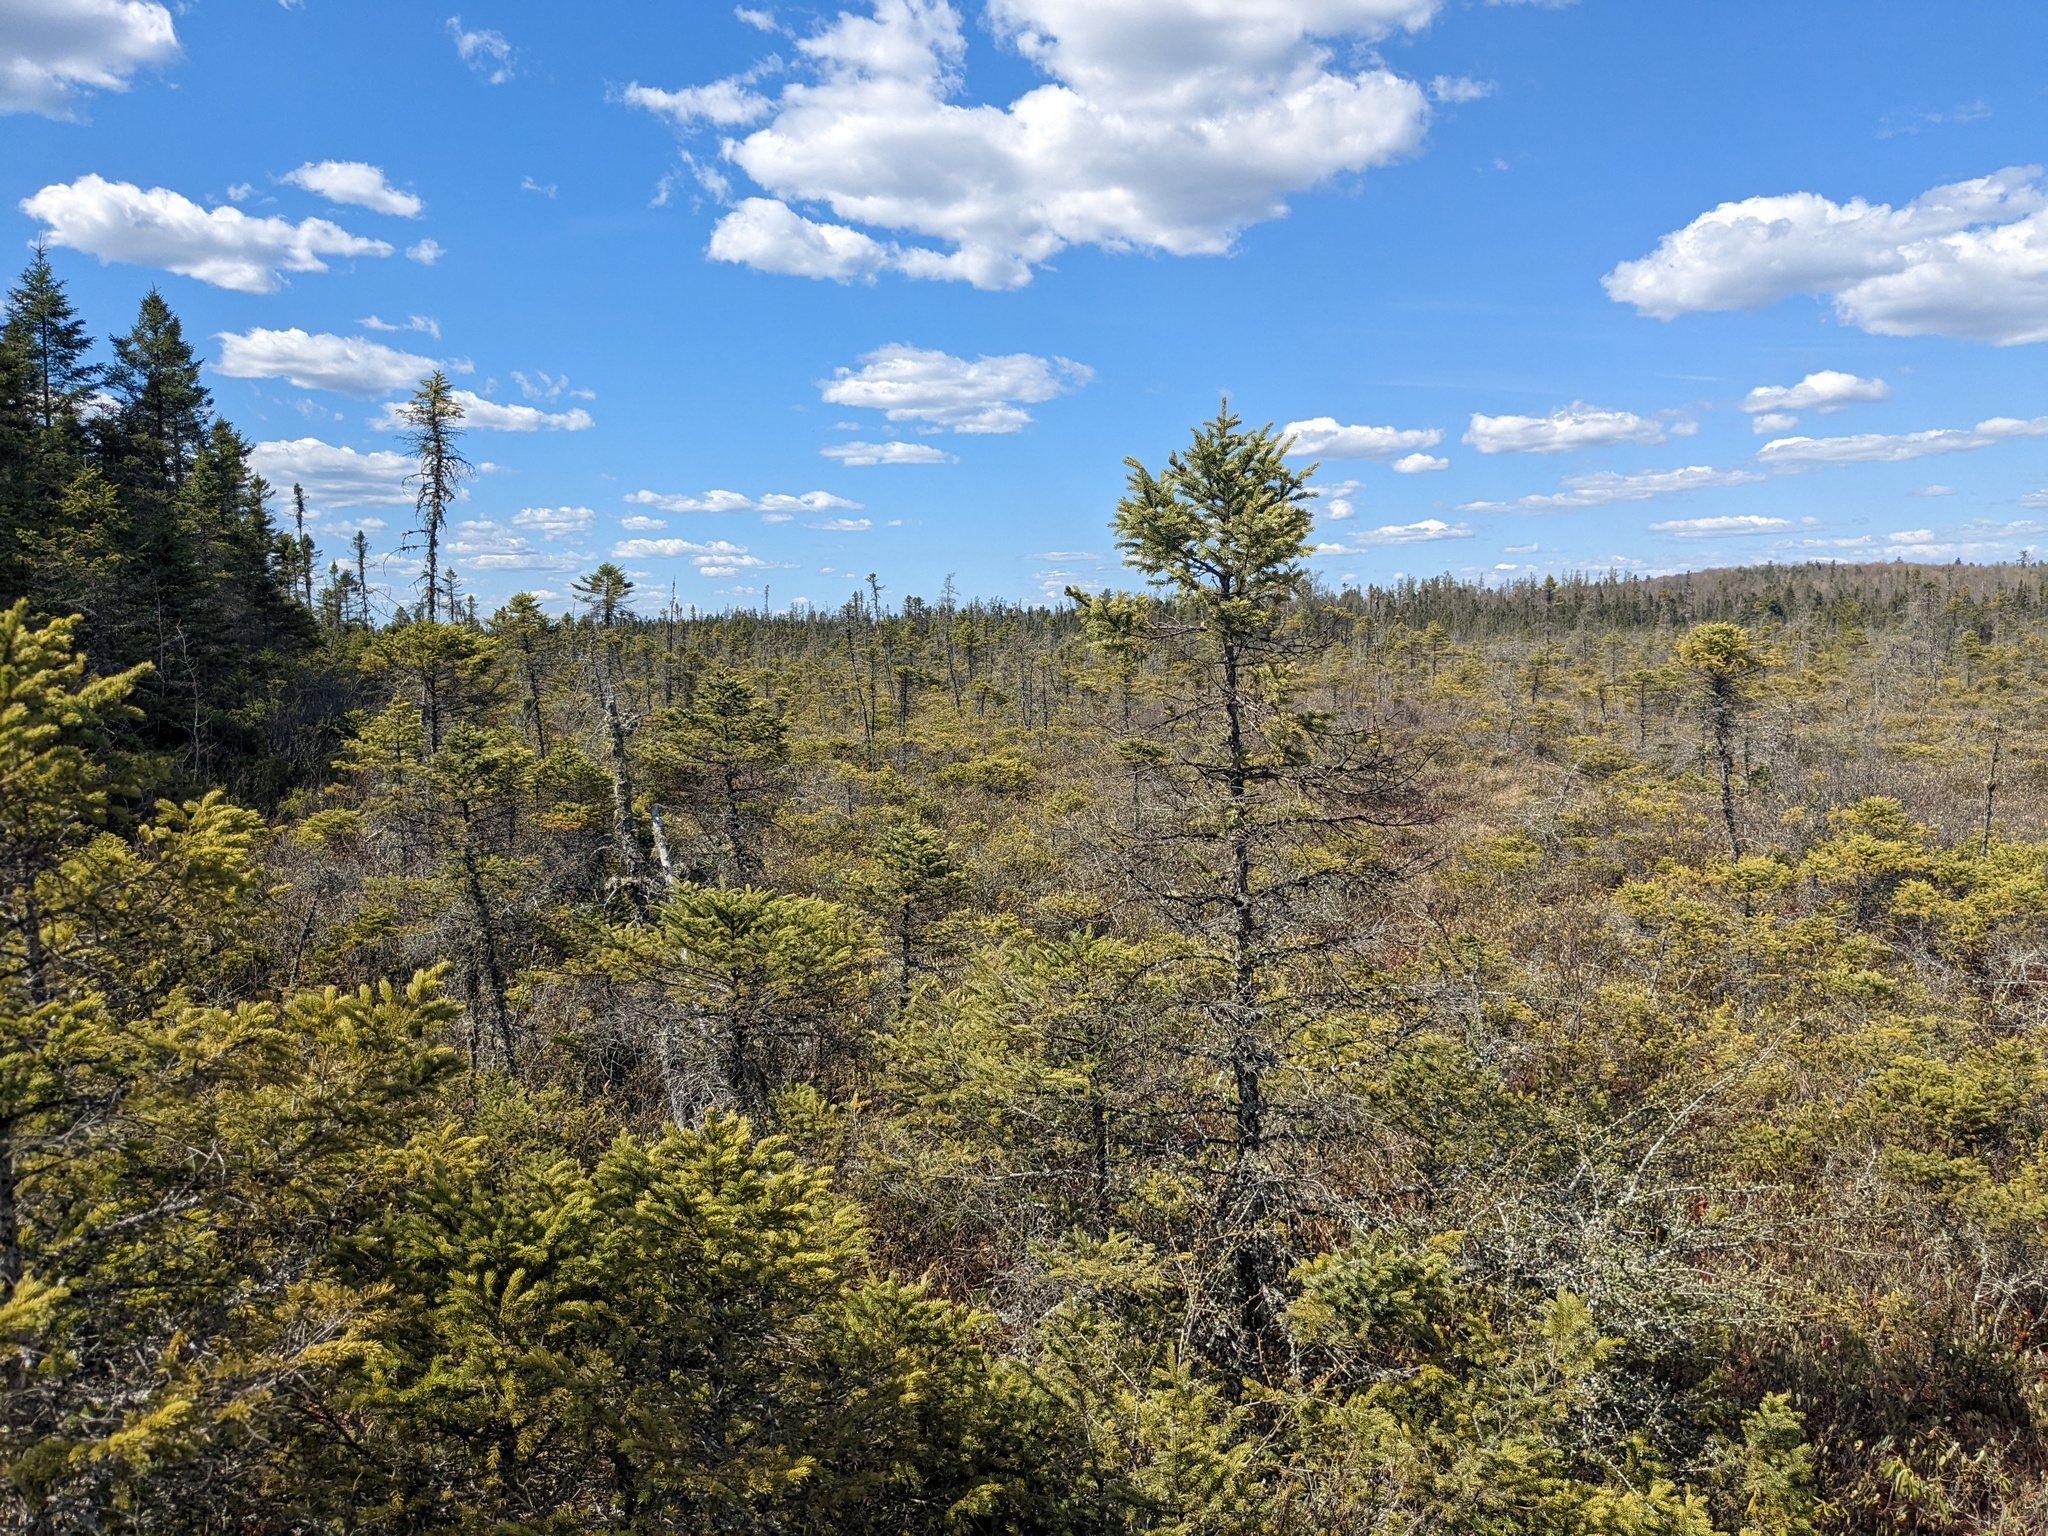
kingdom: Plantae
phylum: Tracheophyta
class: Pinopsida
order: Pinales
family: Pinaceae
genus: Picea
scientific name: Picea mariana
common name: Black spruce
